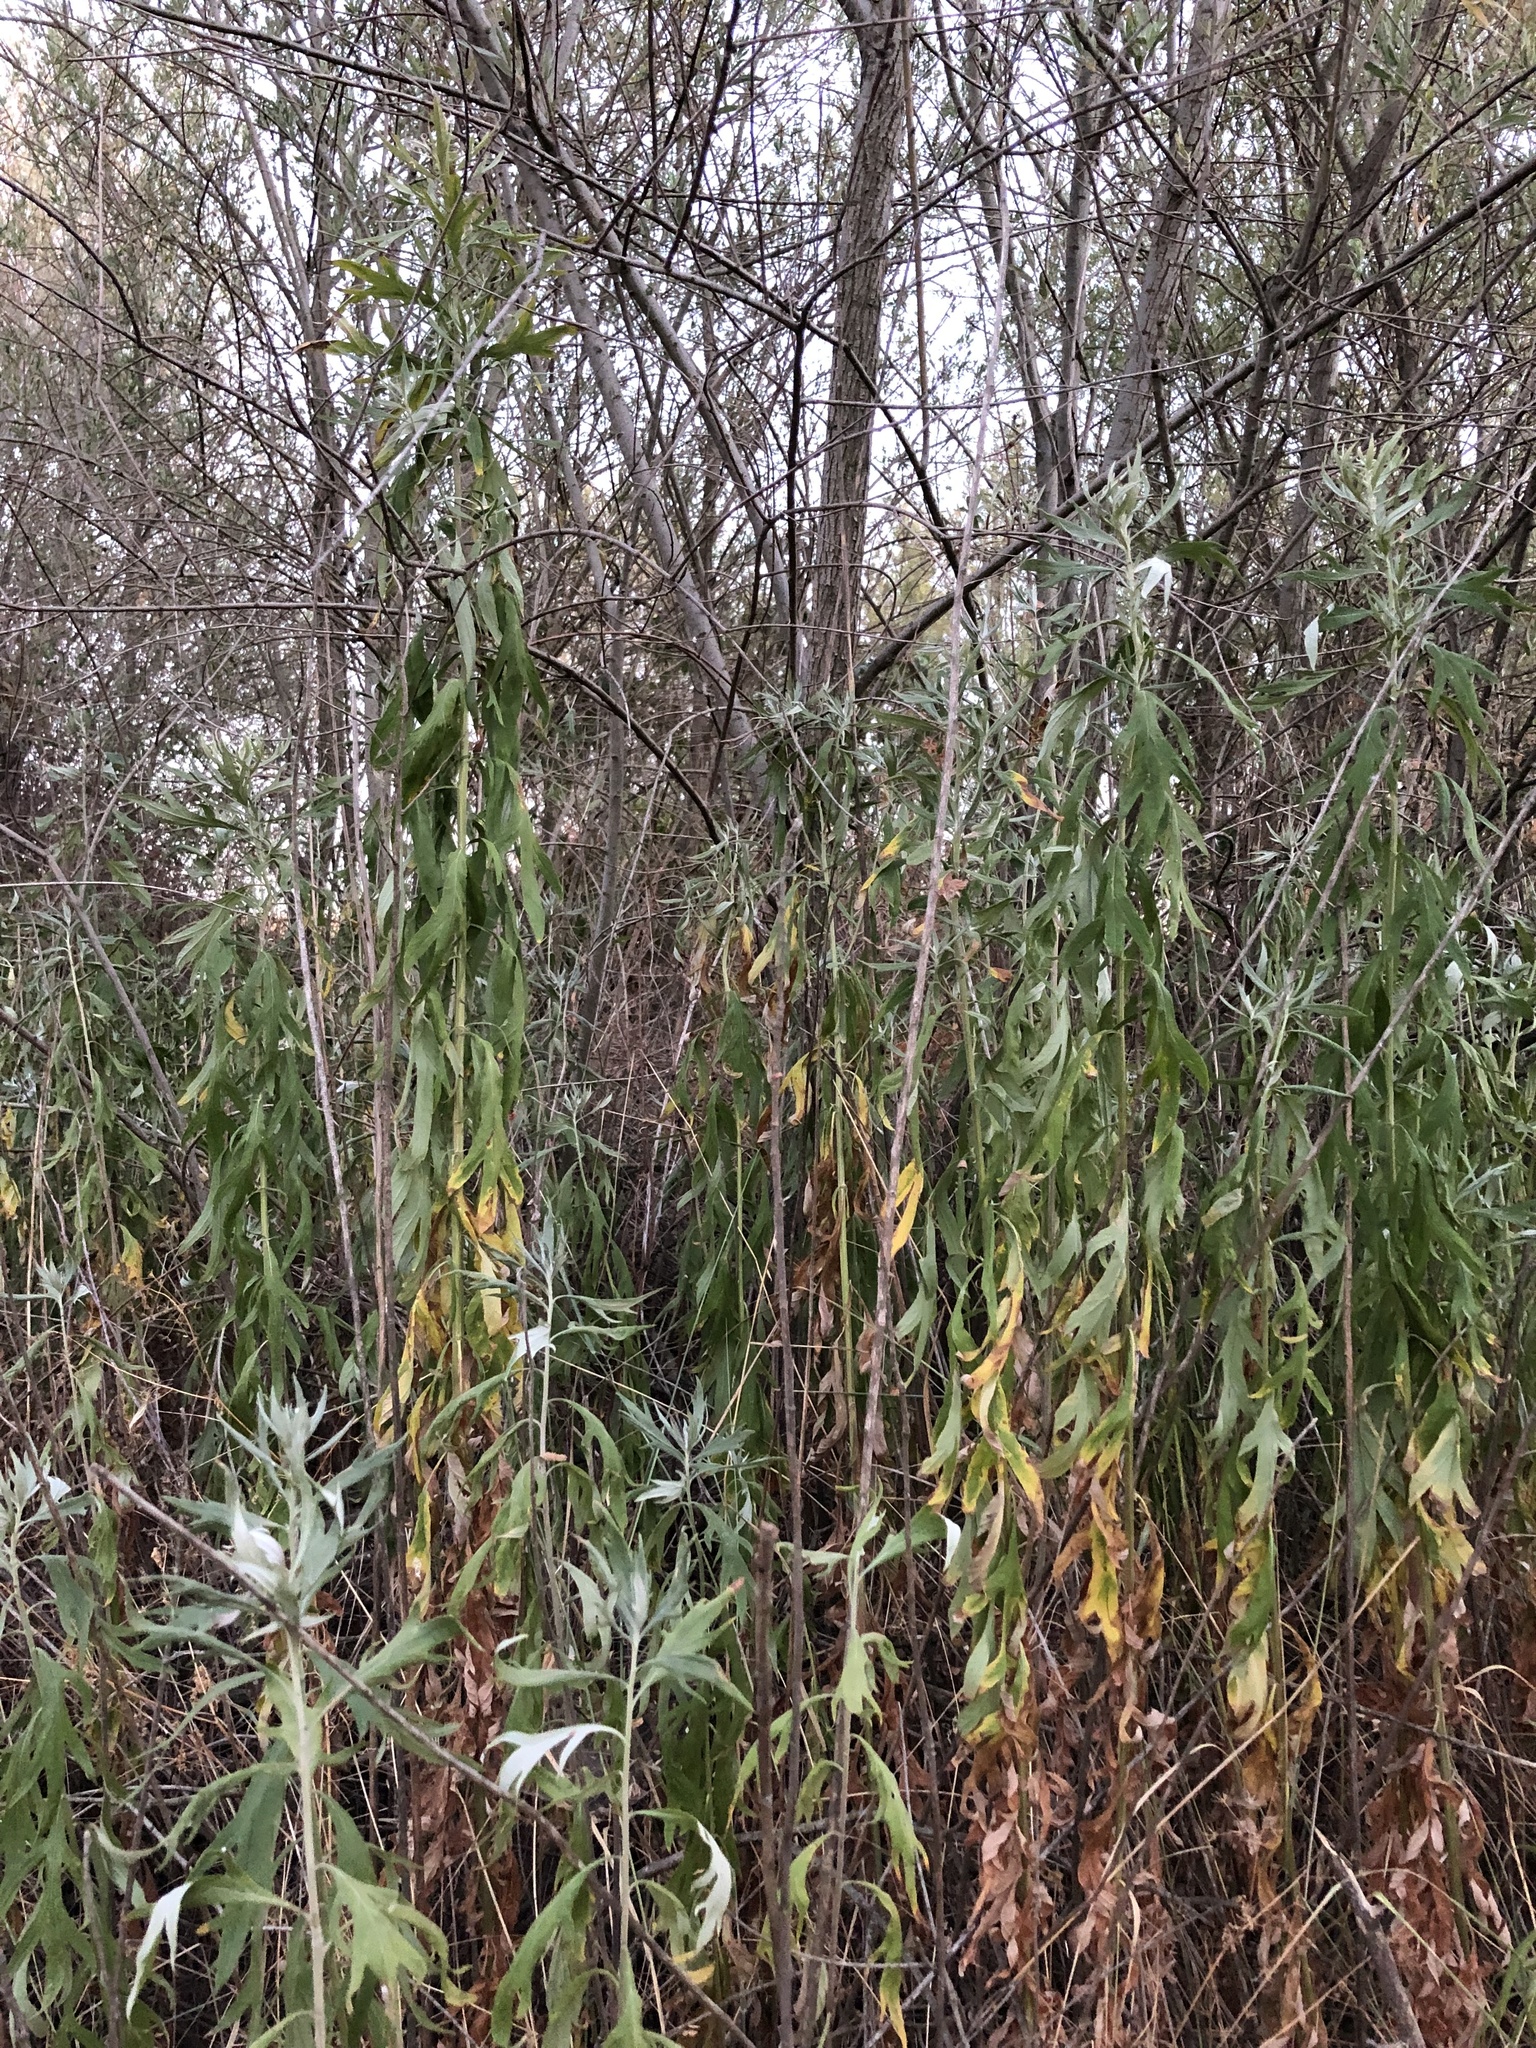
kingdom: Plantae
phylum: Tracheophyta
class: Magnoliopsida
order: Asterales
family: Asteraceae
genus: Artemisia
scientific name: Artemisia douglasiana
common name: Northwest mugwort
